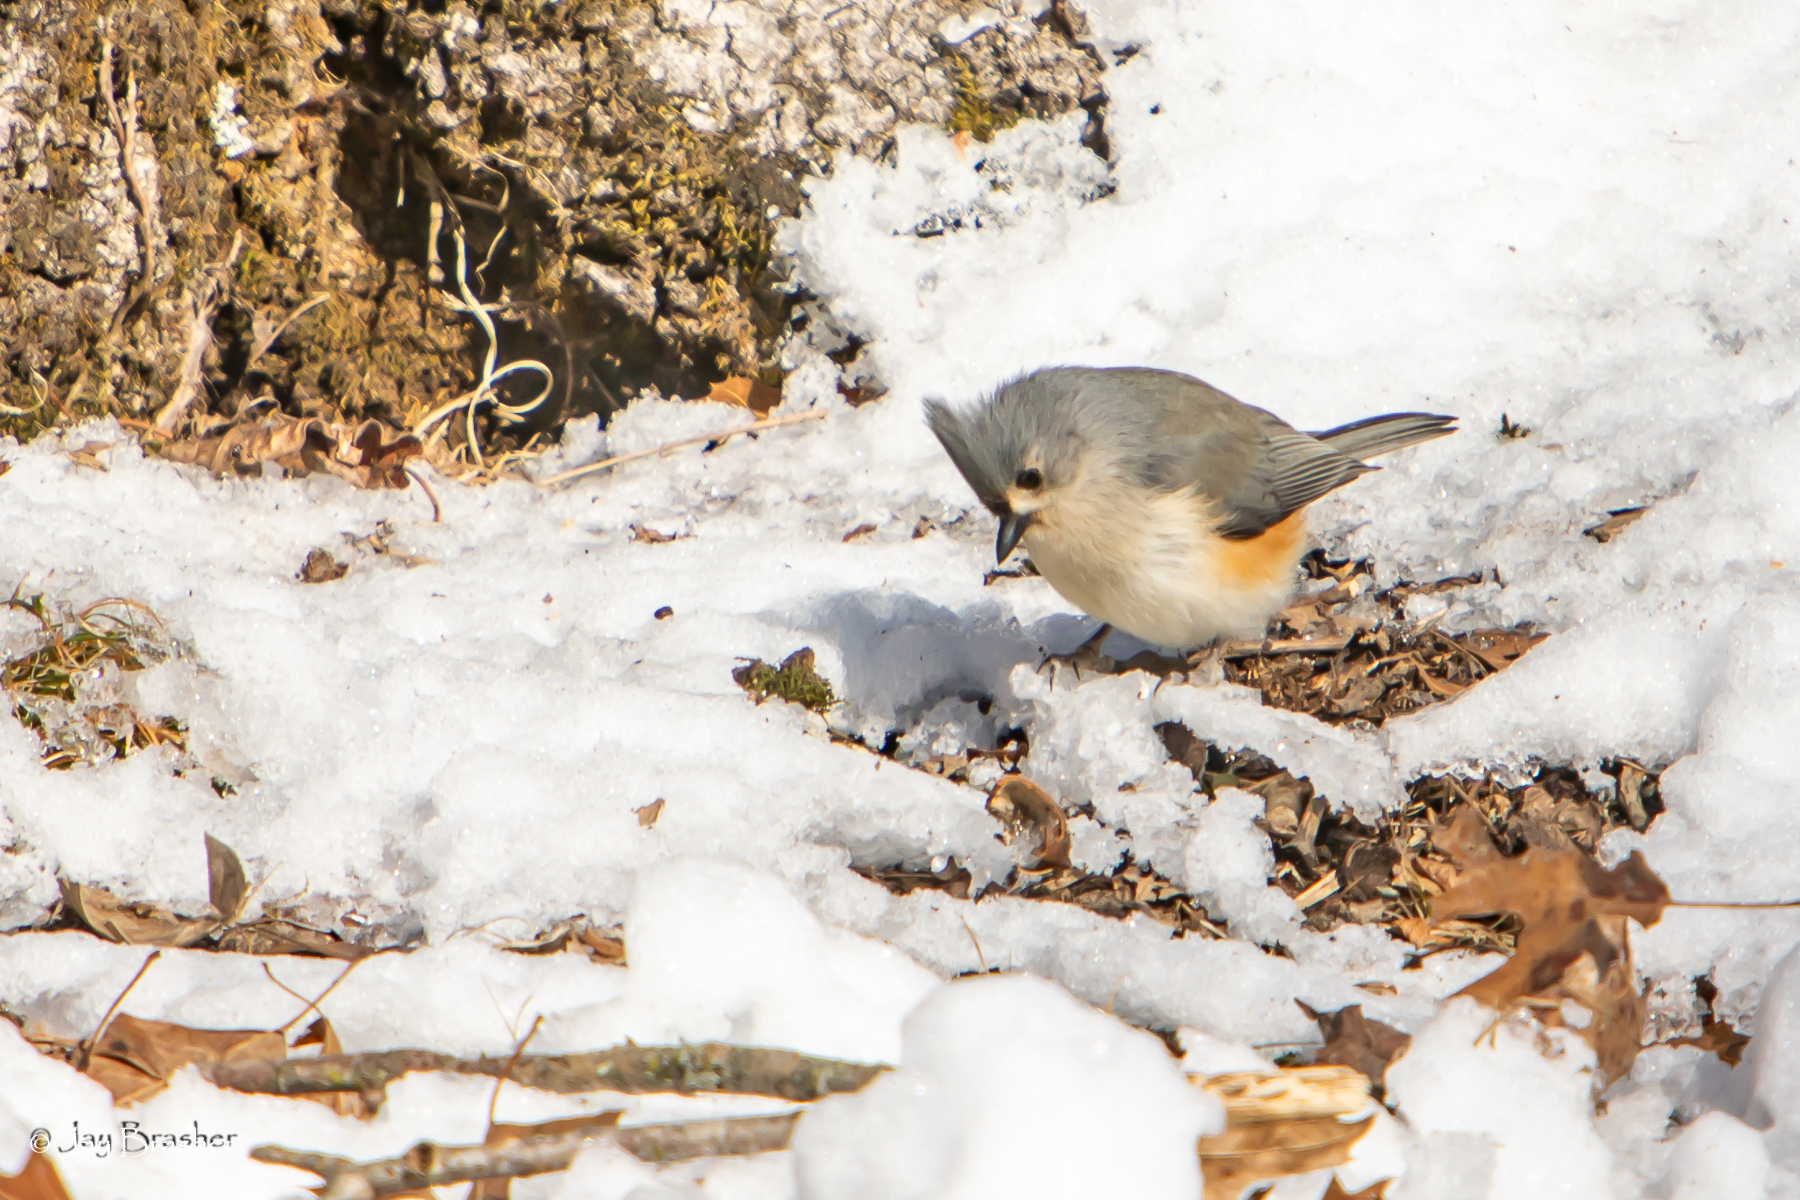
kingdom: Animalia
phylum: Chordata
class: Aves
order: Passeriformes
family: Paridae
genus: Baeolophus
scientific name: Baeolophus bicolor
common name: Tufted titmouse
